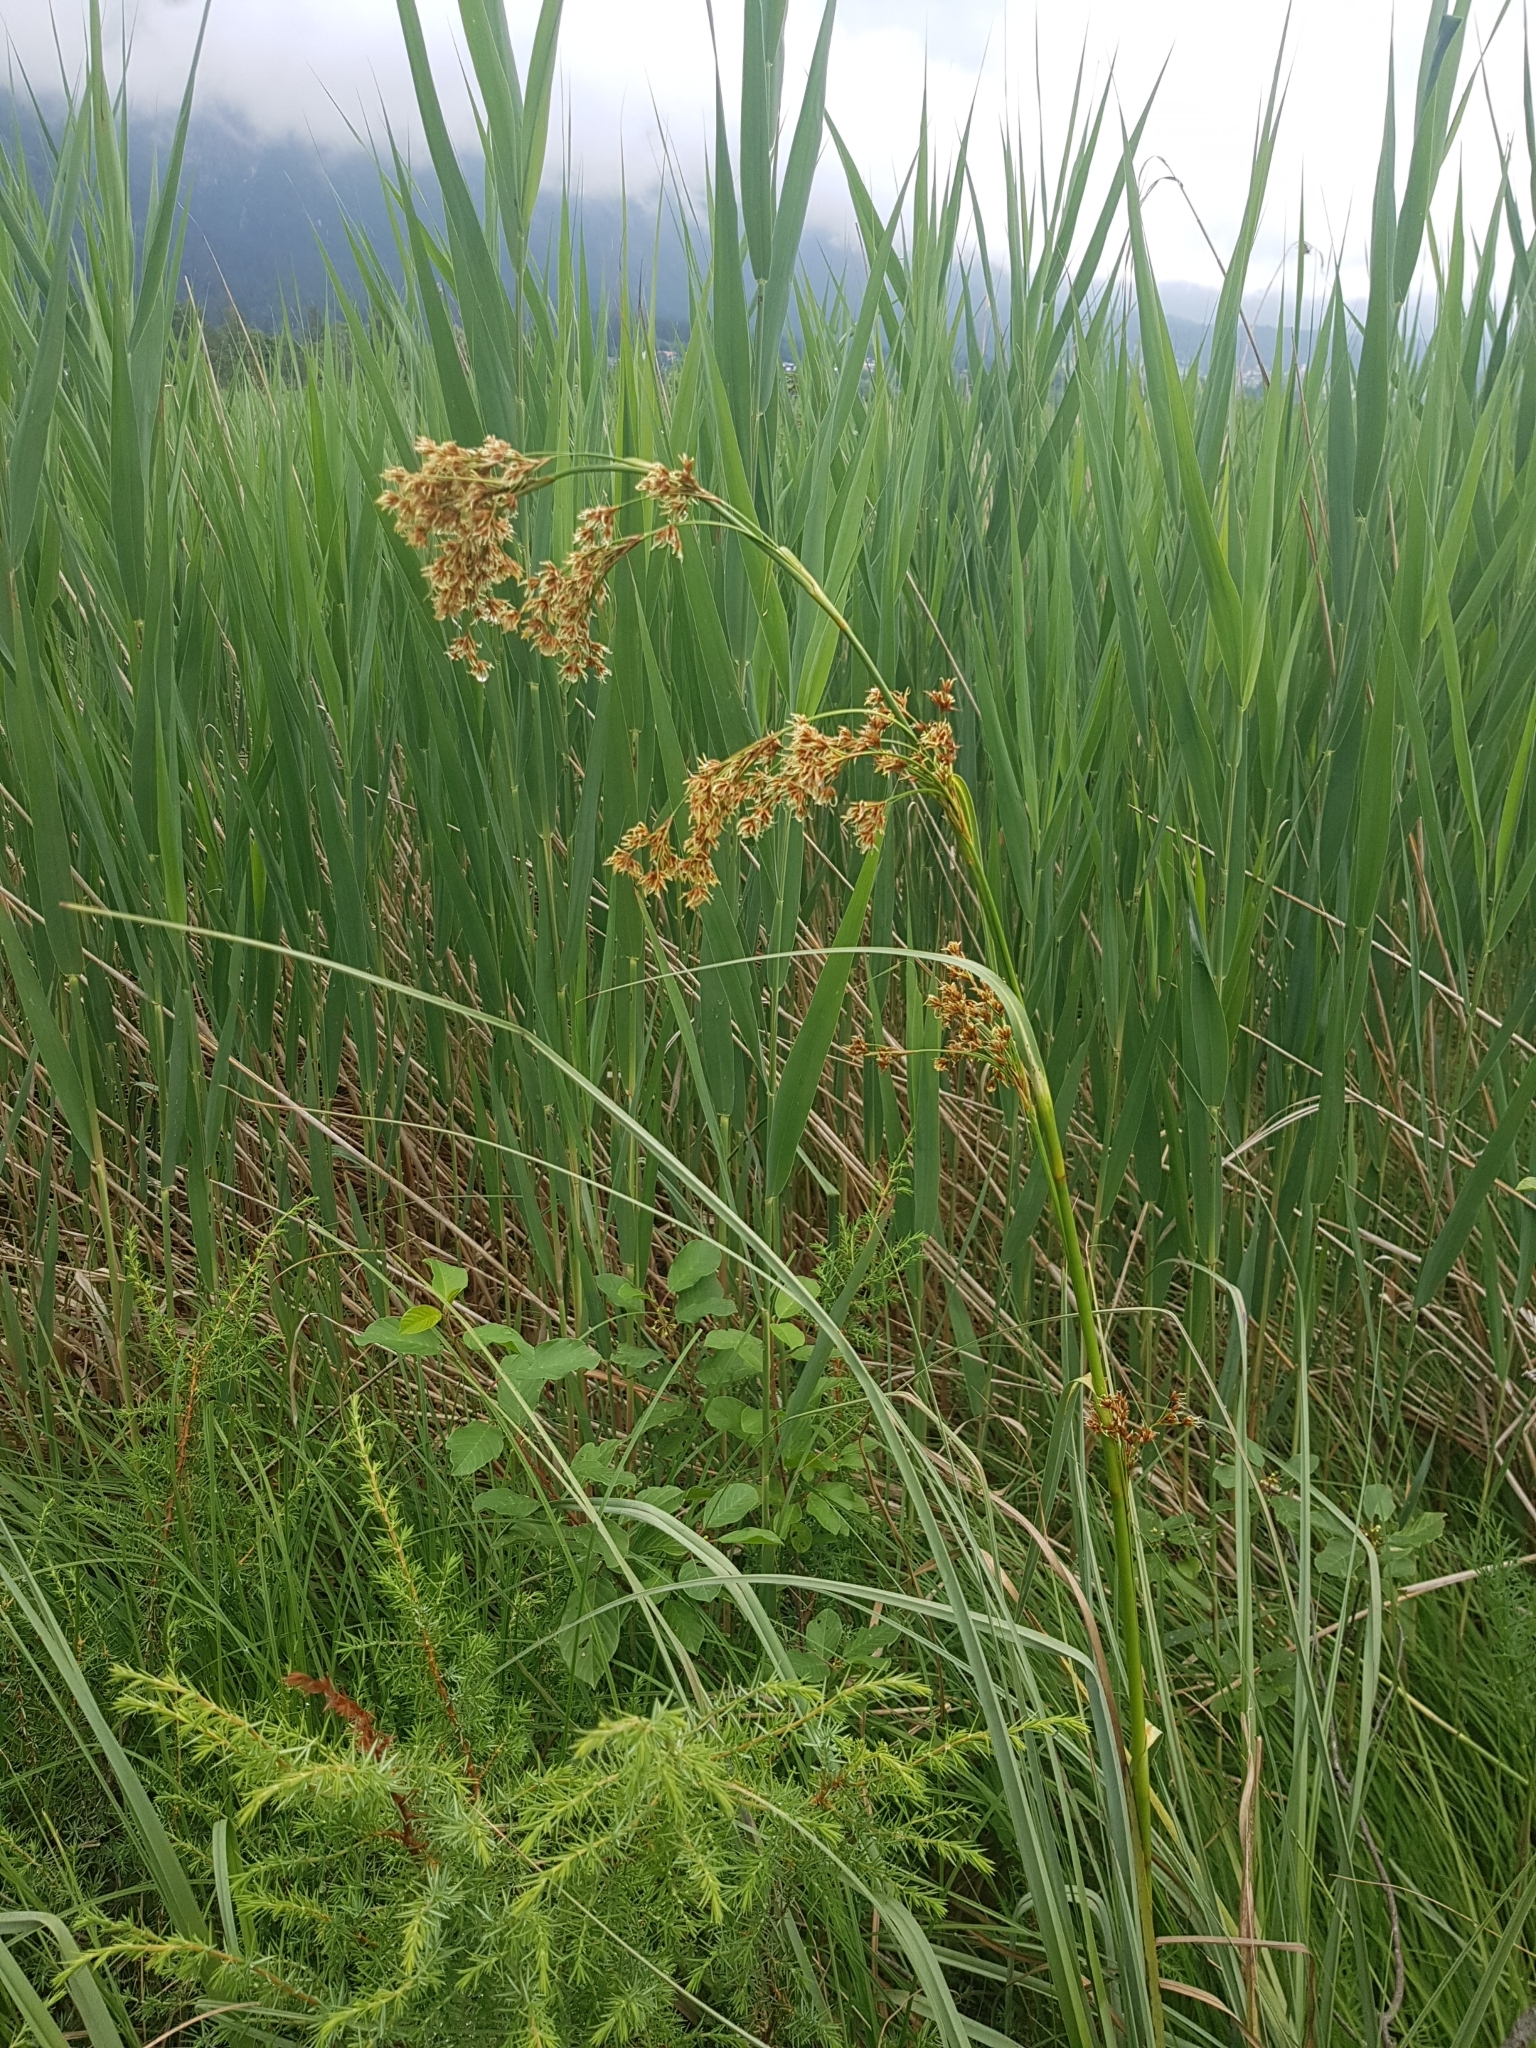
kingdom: Plantae
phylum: Tracheophyta
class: Liliopsida
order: Poales
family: Cyperaceae
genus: Cladium
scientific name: Cladium mariscus
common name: Great fen-sedge
